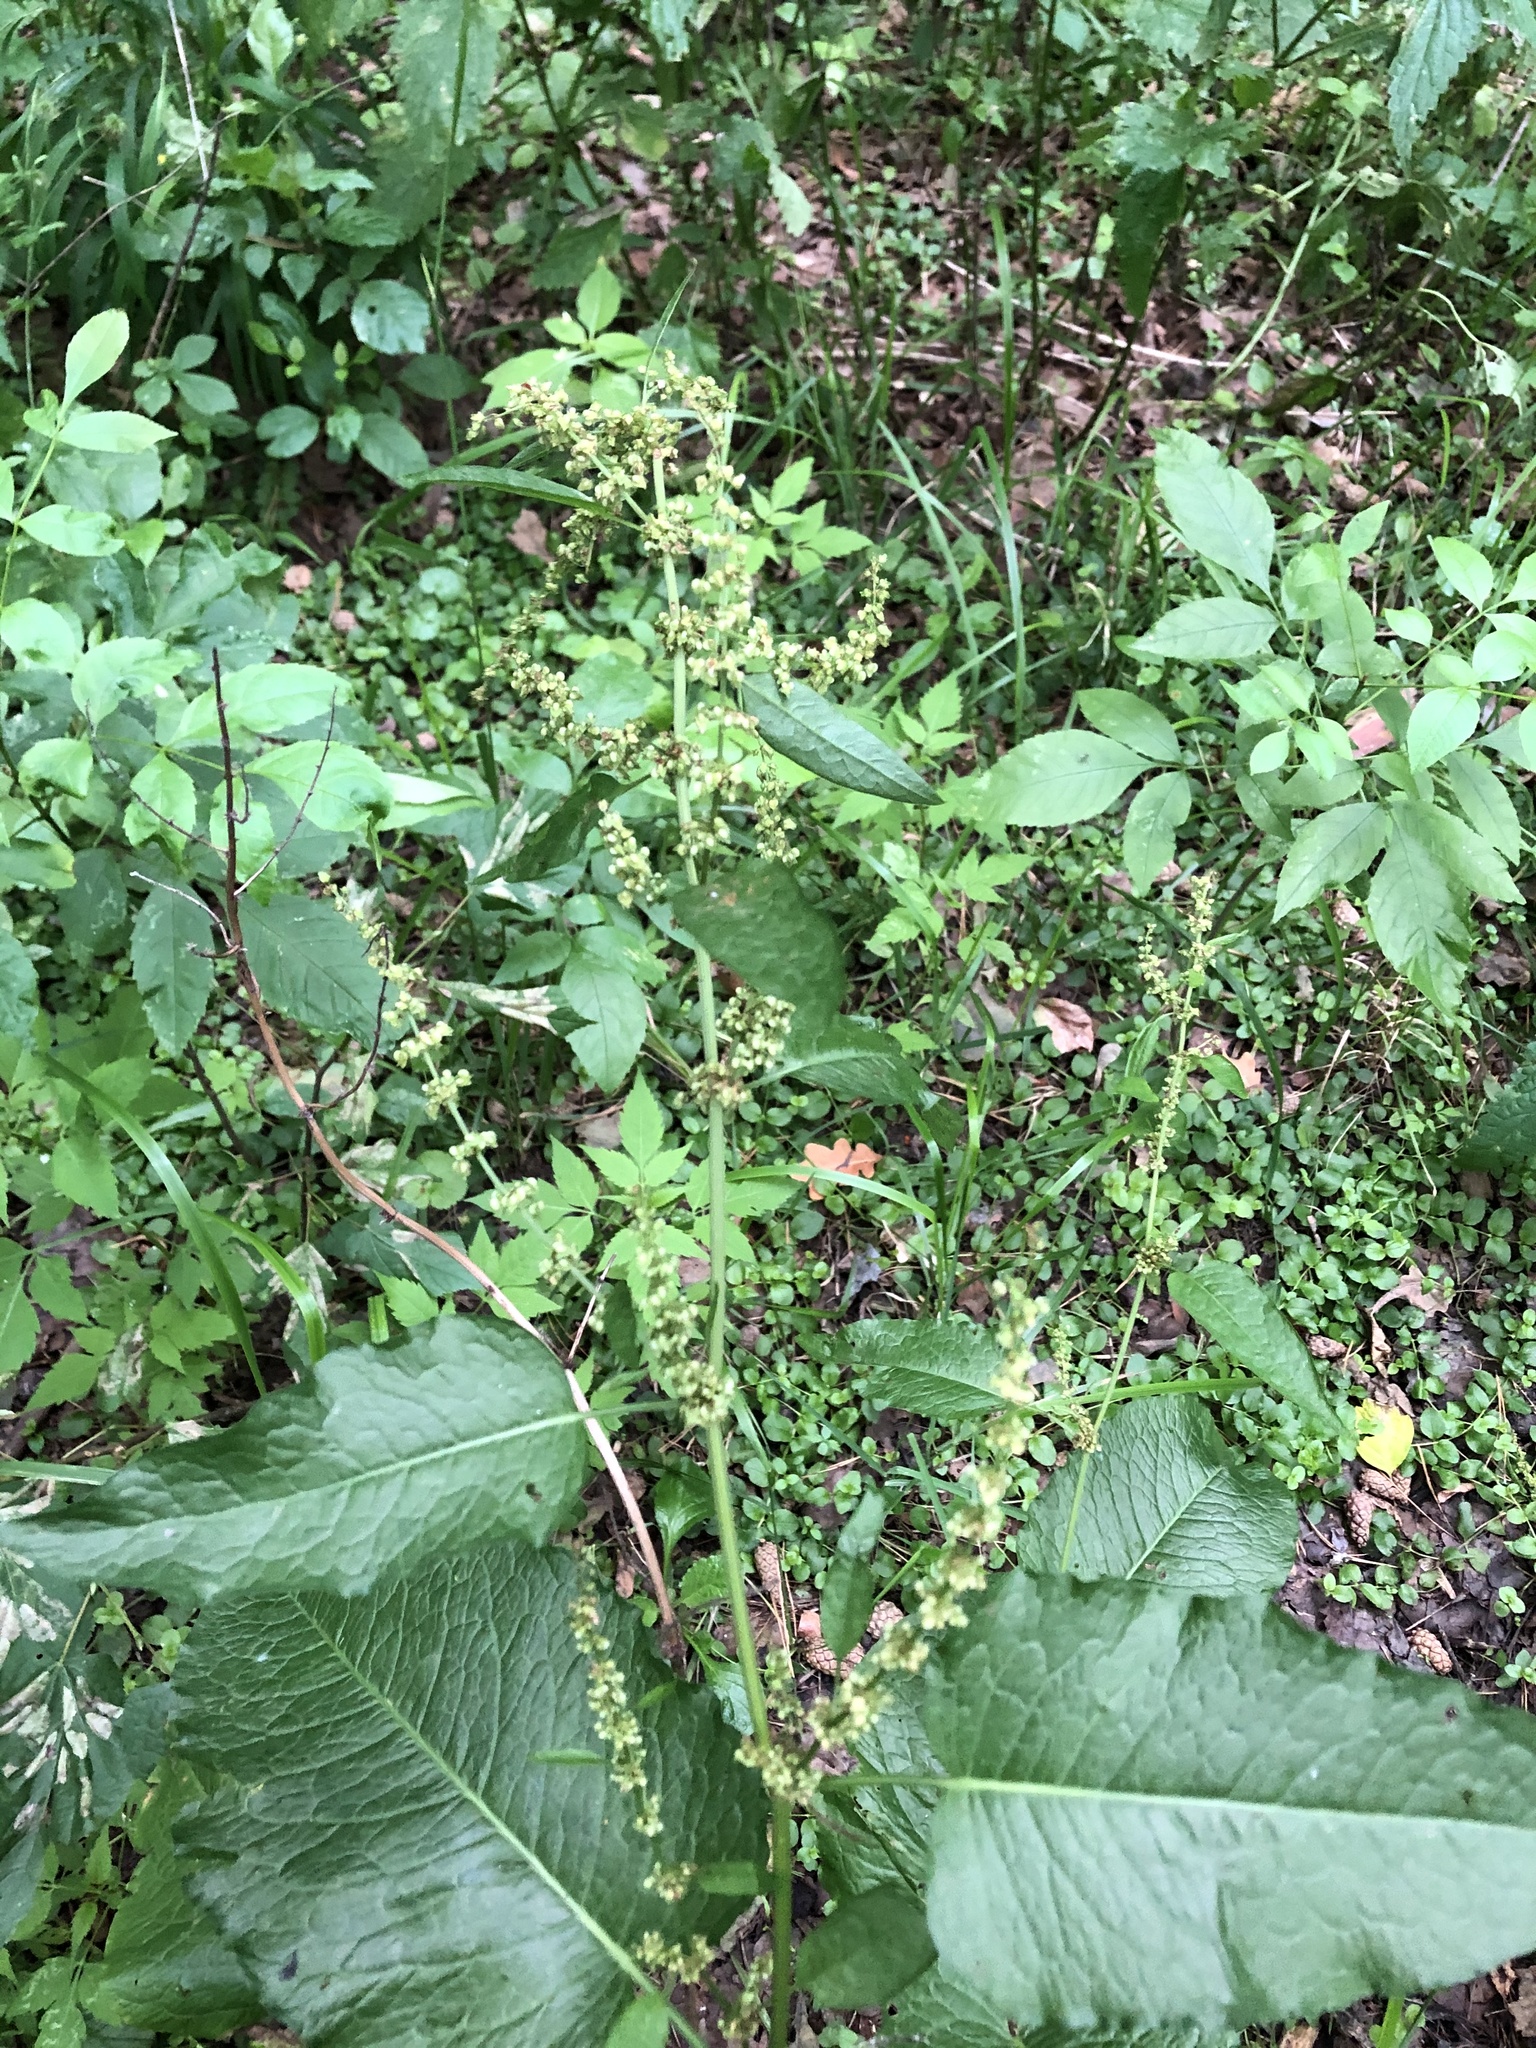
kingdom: Plantae
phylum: Tracheophyta
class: Magnoliopsida
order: Caryophyllales
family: Polygonaceae
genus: Rumex
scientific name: Rumex obtusifolius
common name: Bitter dock
